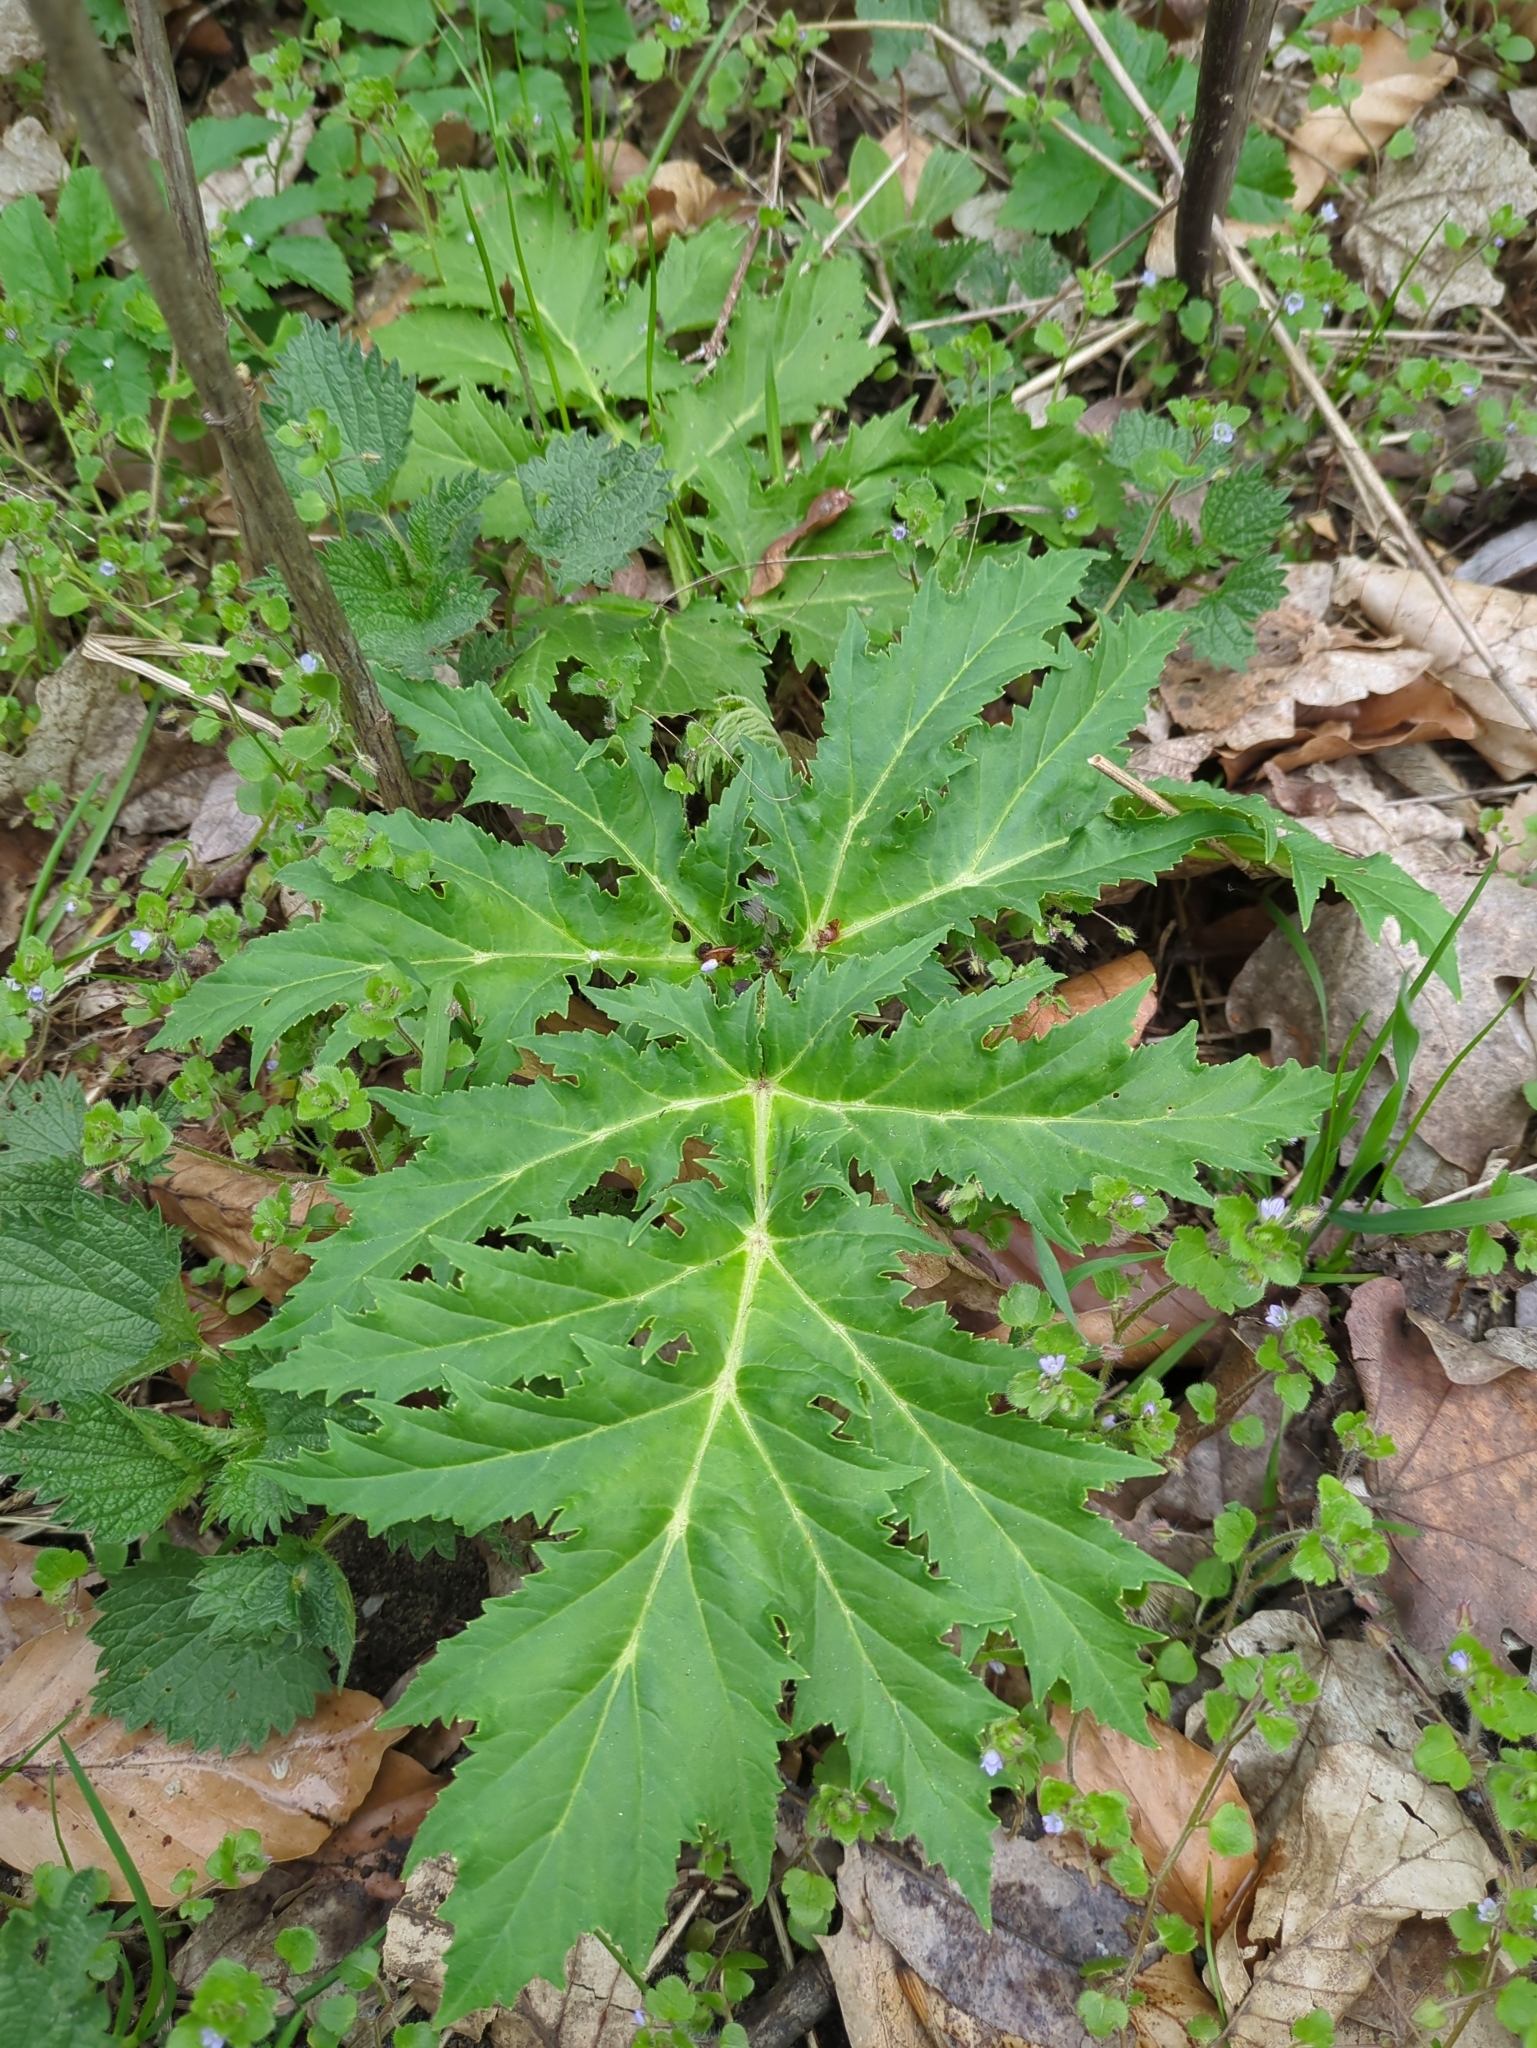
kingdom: Plantae
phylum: Tracheophyta
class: Magnoliopsida
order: Apiales
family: Apiaceae
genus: Heracleum
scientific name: Heracleum mantegazzianum
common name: Giant hogweed
